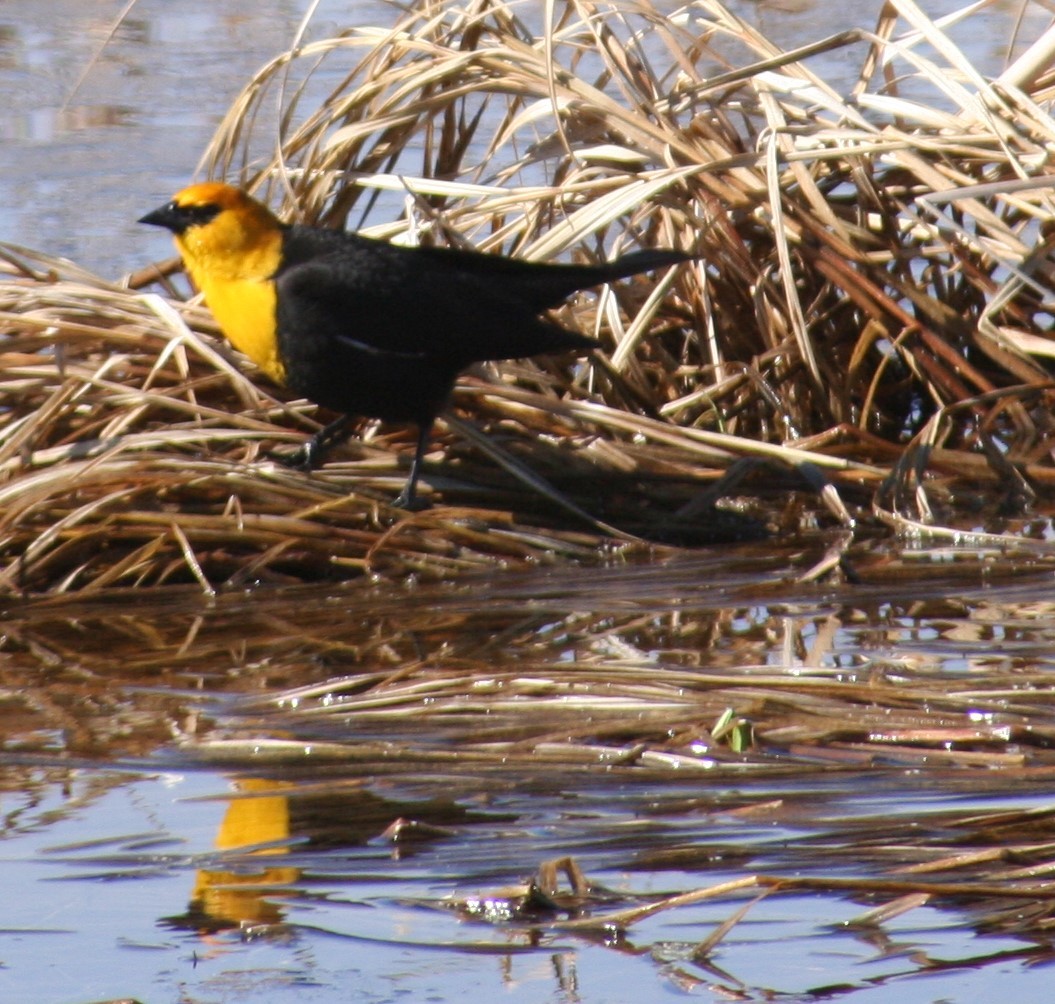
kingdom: Animalia
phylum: Chordata
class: Aves
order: Passeriformes
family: Icteridae
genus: Xanthocephalus
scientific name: Xanthocephalus xanthocephalus
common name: Yellow-headed blackbird
